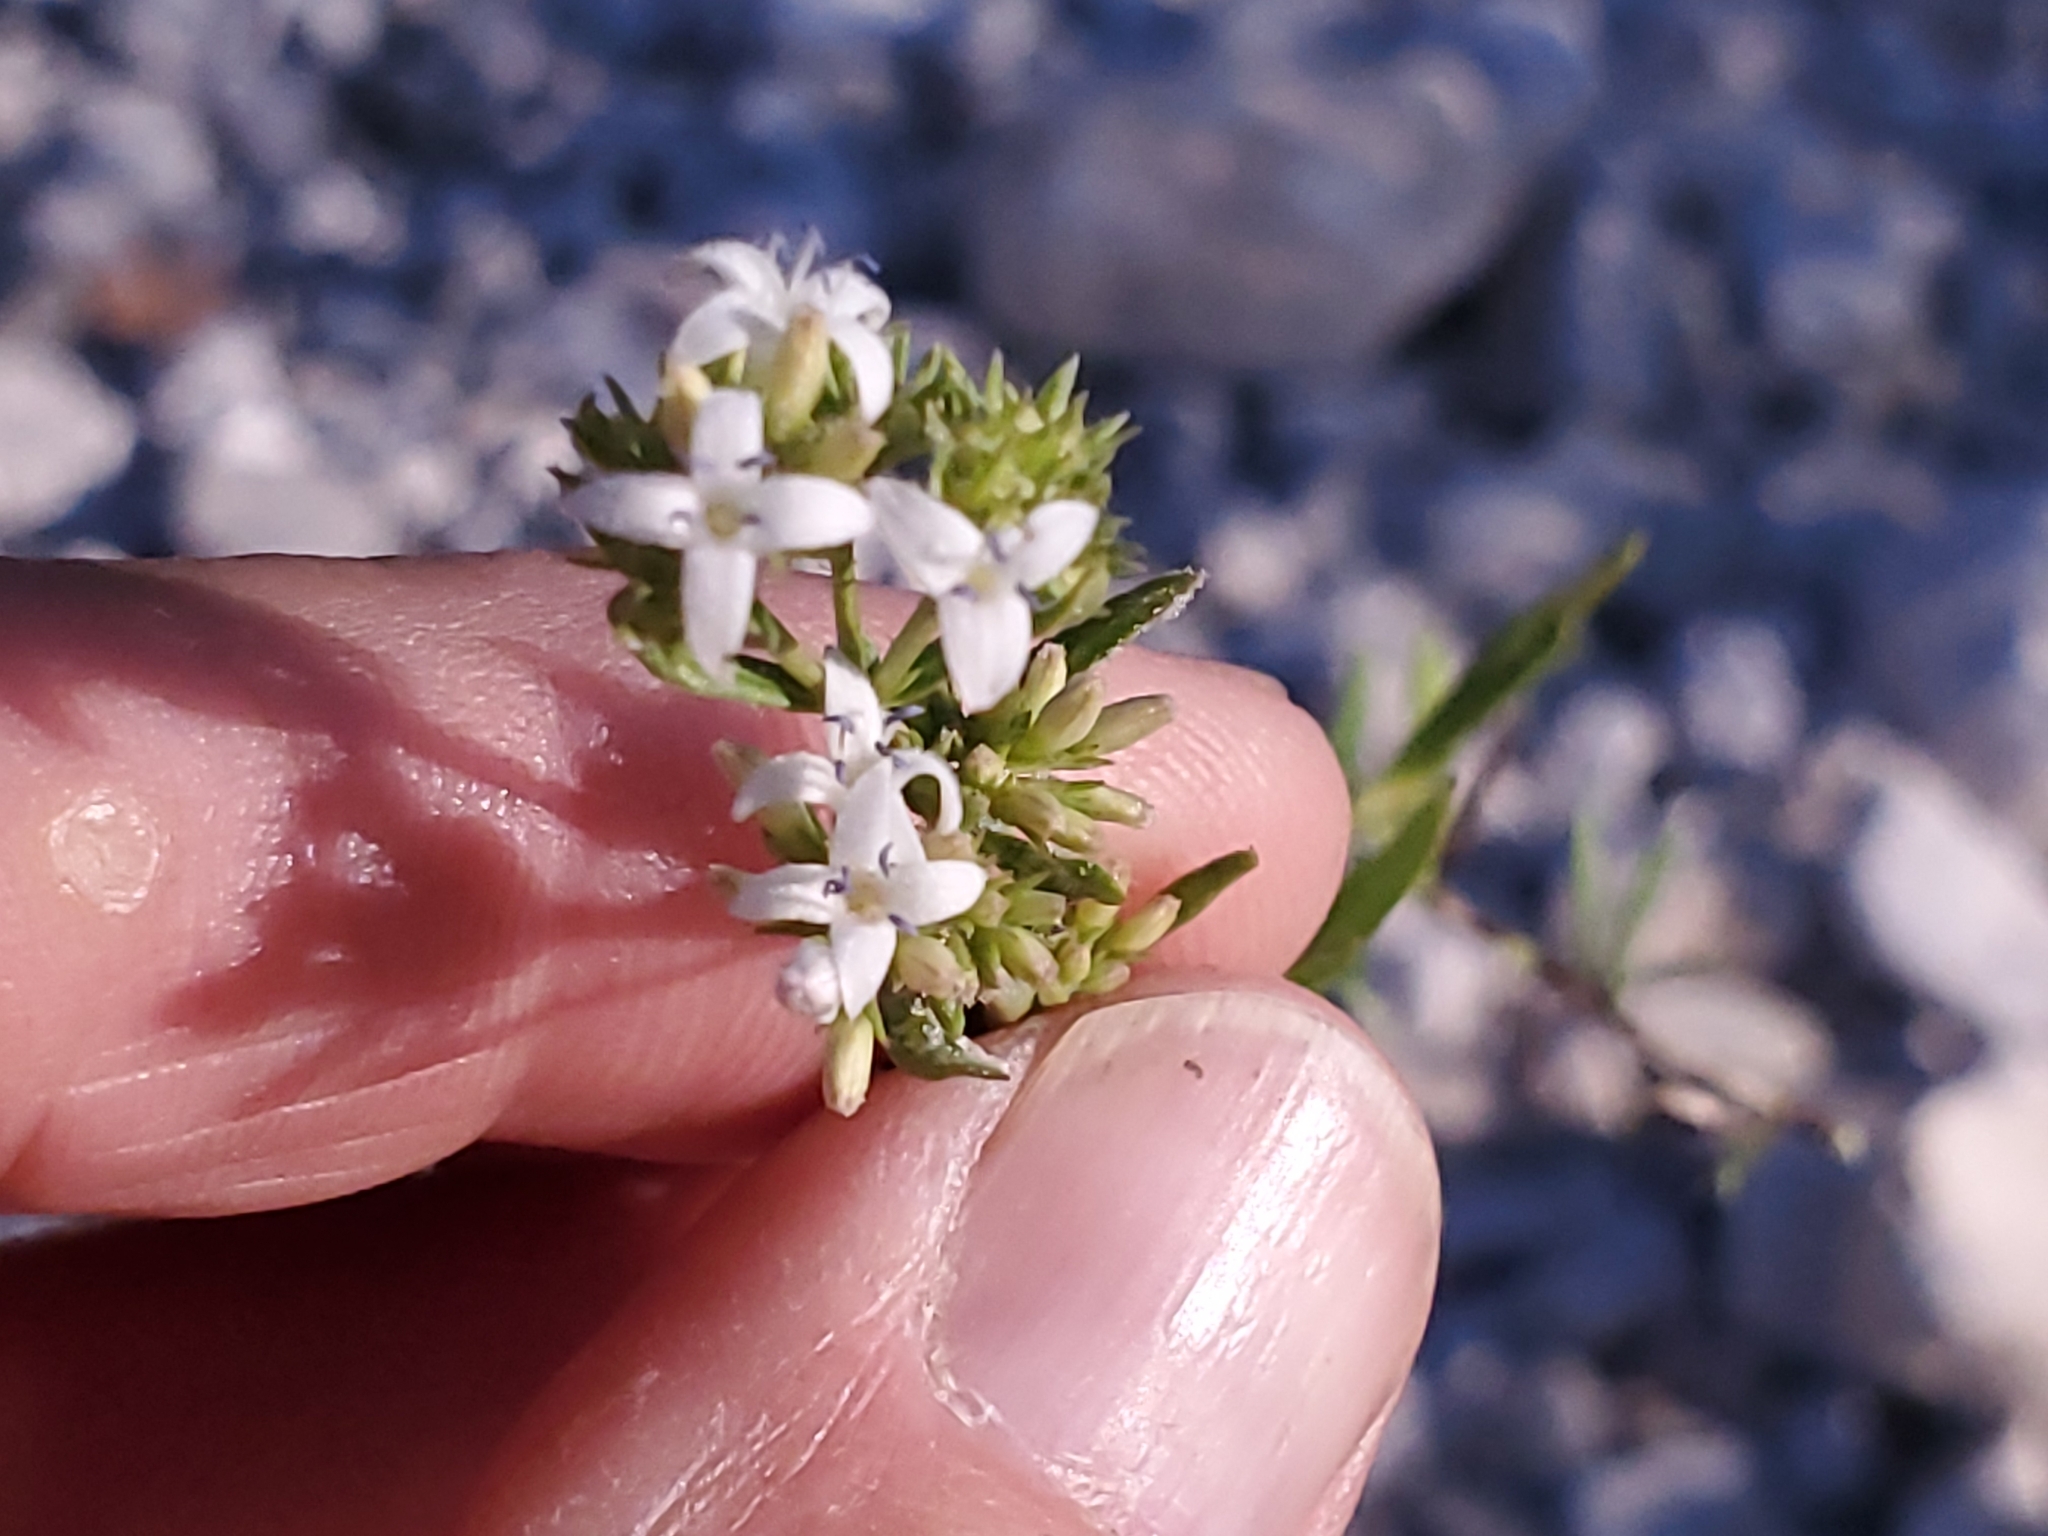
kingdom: Plantae
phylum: Tracheophyta
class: Magnoliopsida
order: Gentianales
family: Rubiaceae
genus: Stenaria
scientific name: Stenaria nigricans
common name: Diamondflowers
